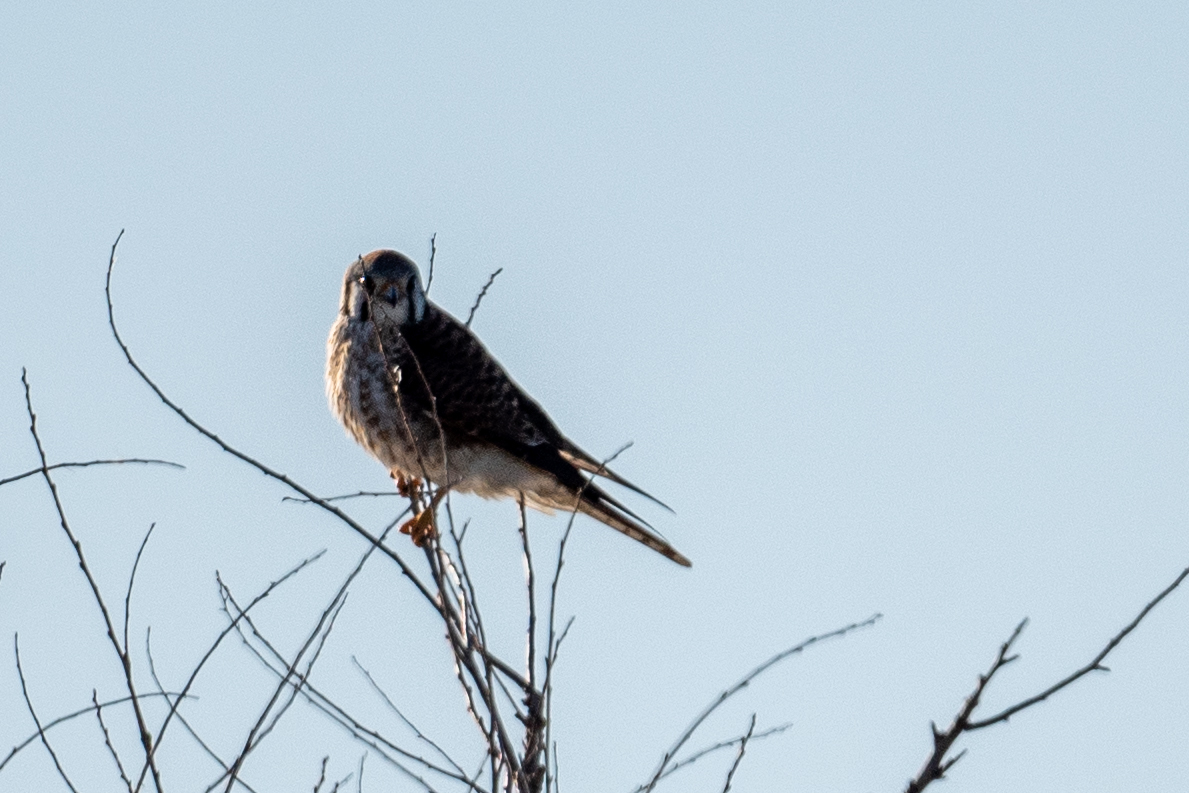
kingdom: Animalia
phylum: Chordata
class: Aves
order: Falconiformes
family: Falconidae
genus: Falco
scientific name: Falco sparverius
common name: American kestrel
